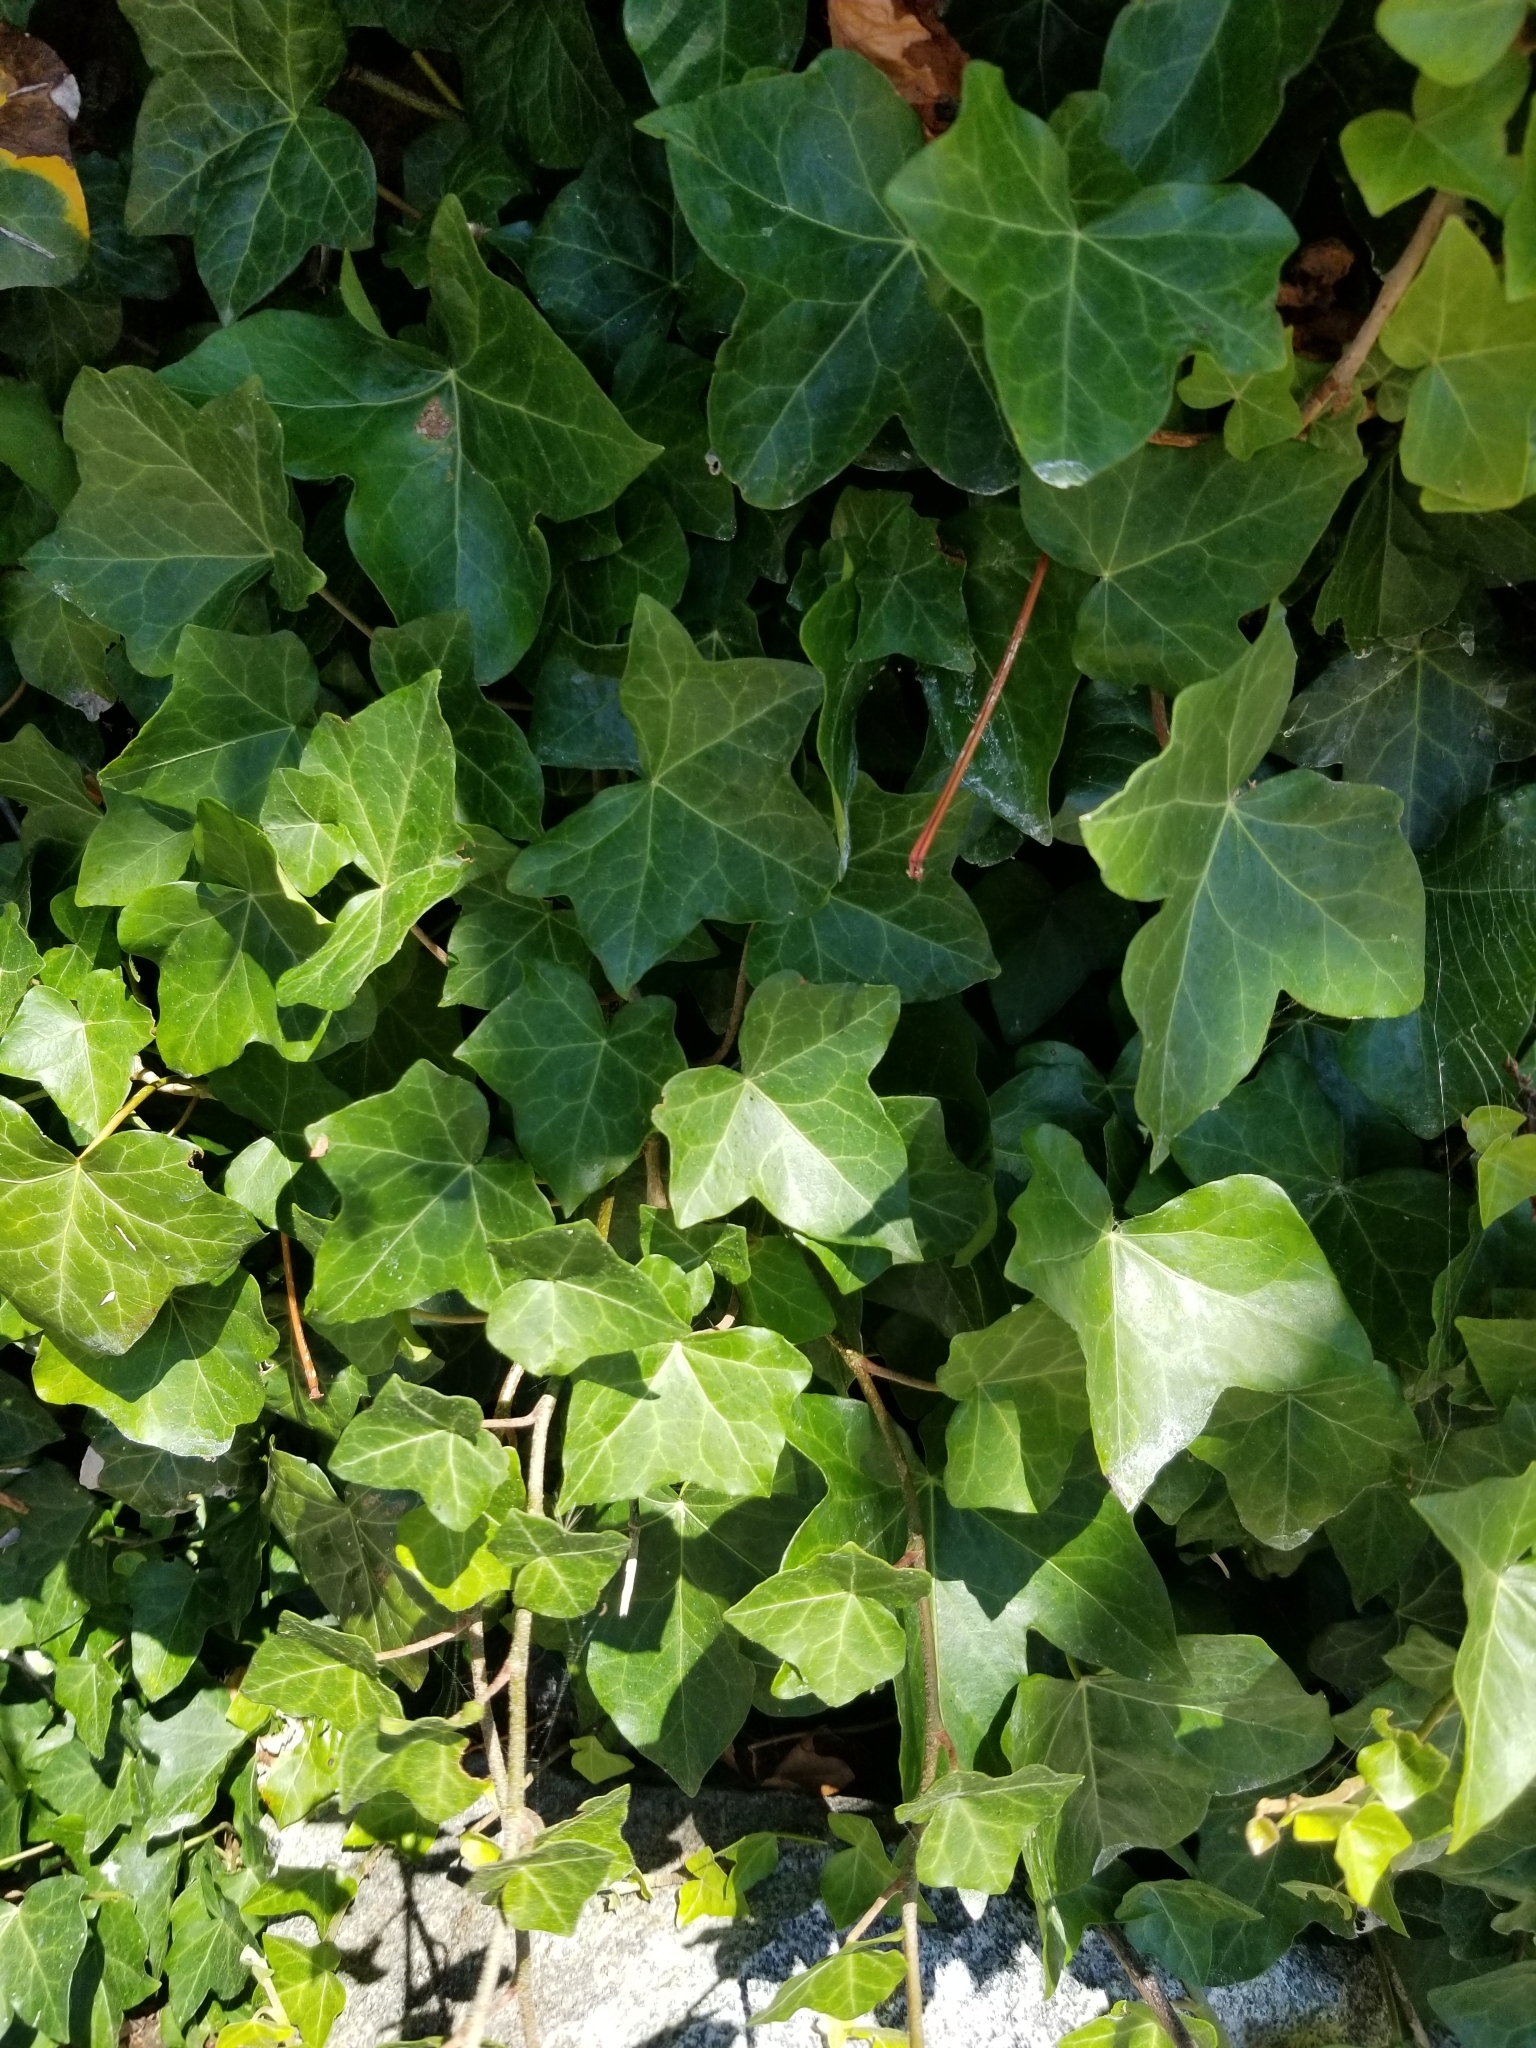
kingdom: Plantae
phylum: Tracheophyta
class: Magnoliopsida
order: Apiales
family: Araliaceae
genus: Hedera
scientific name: Hedera helix
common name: Ivy
